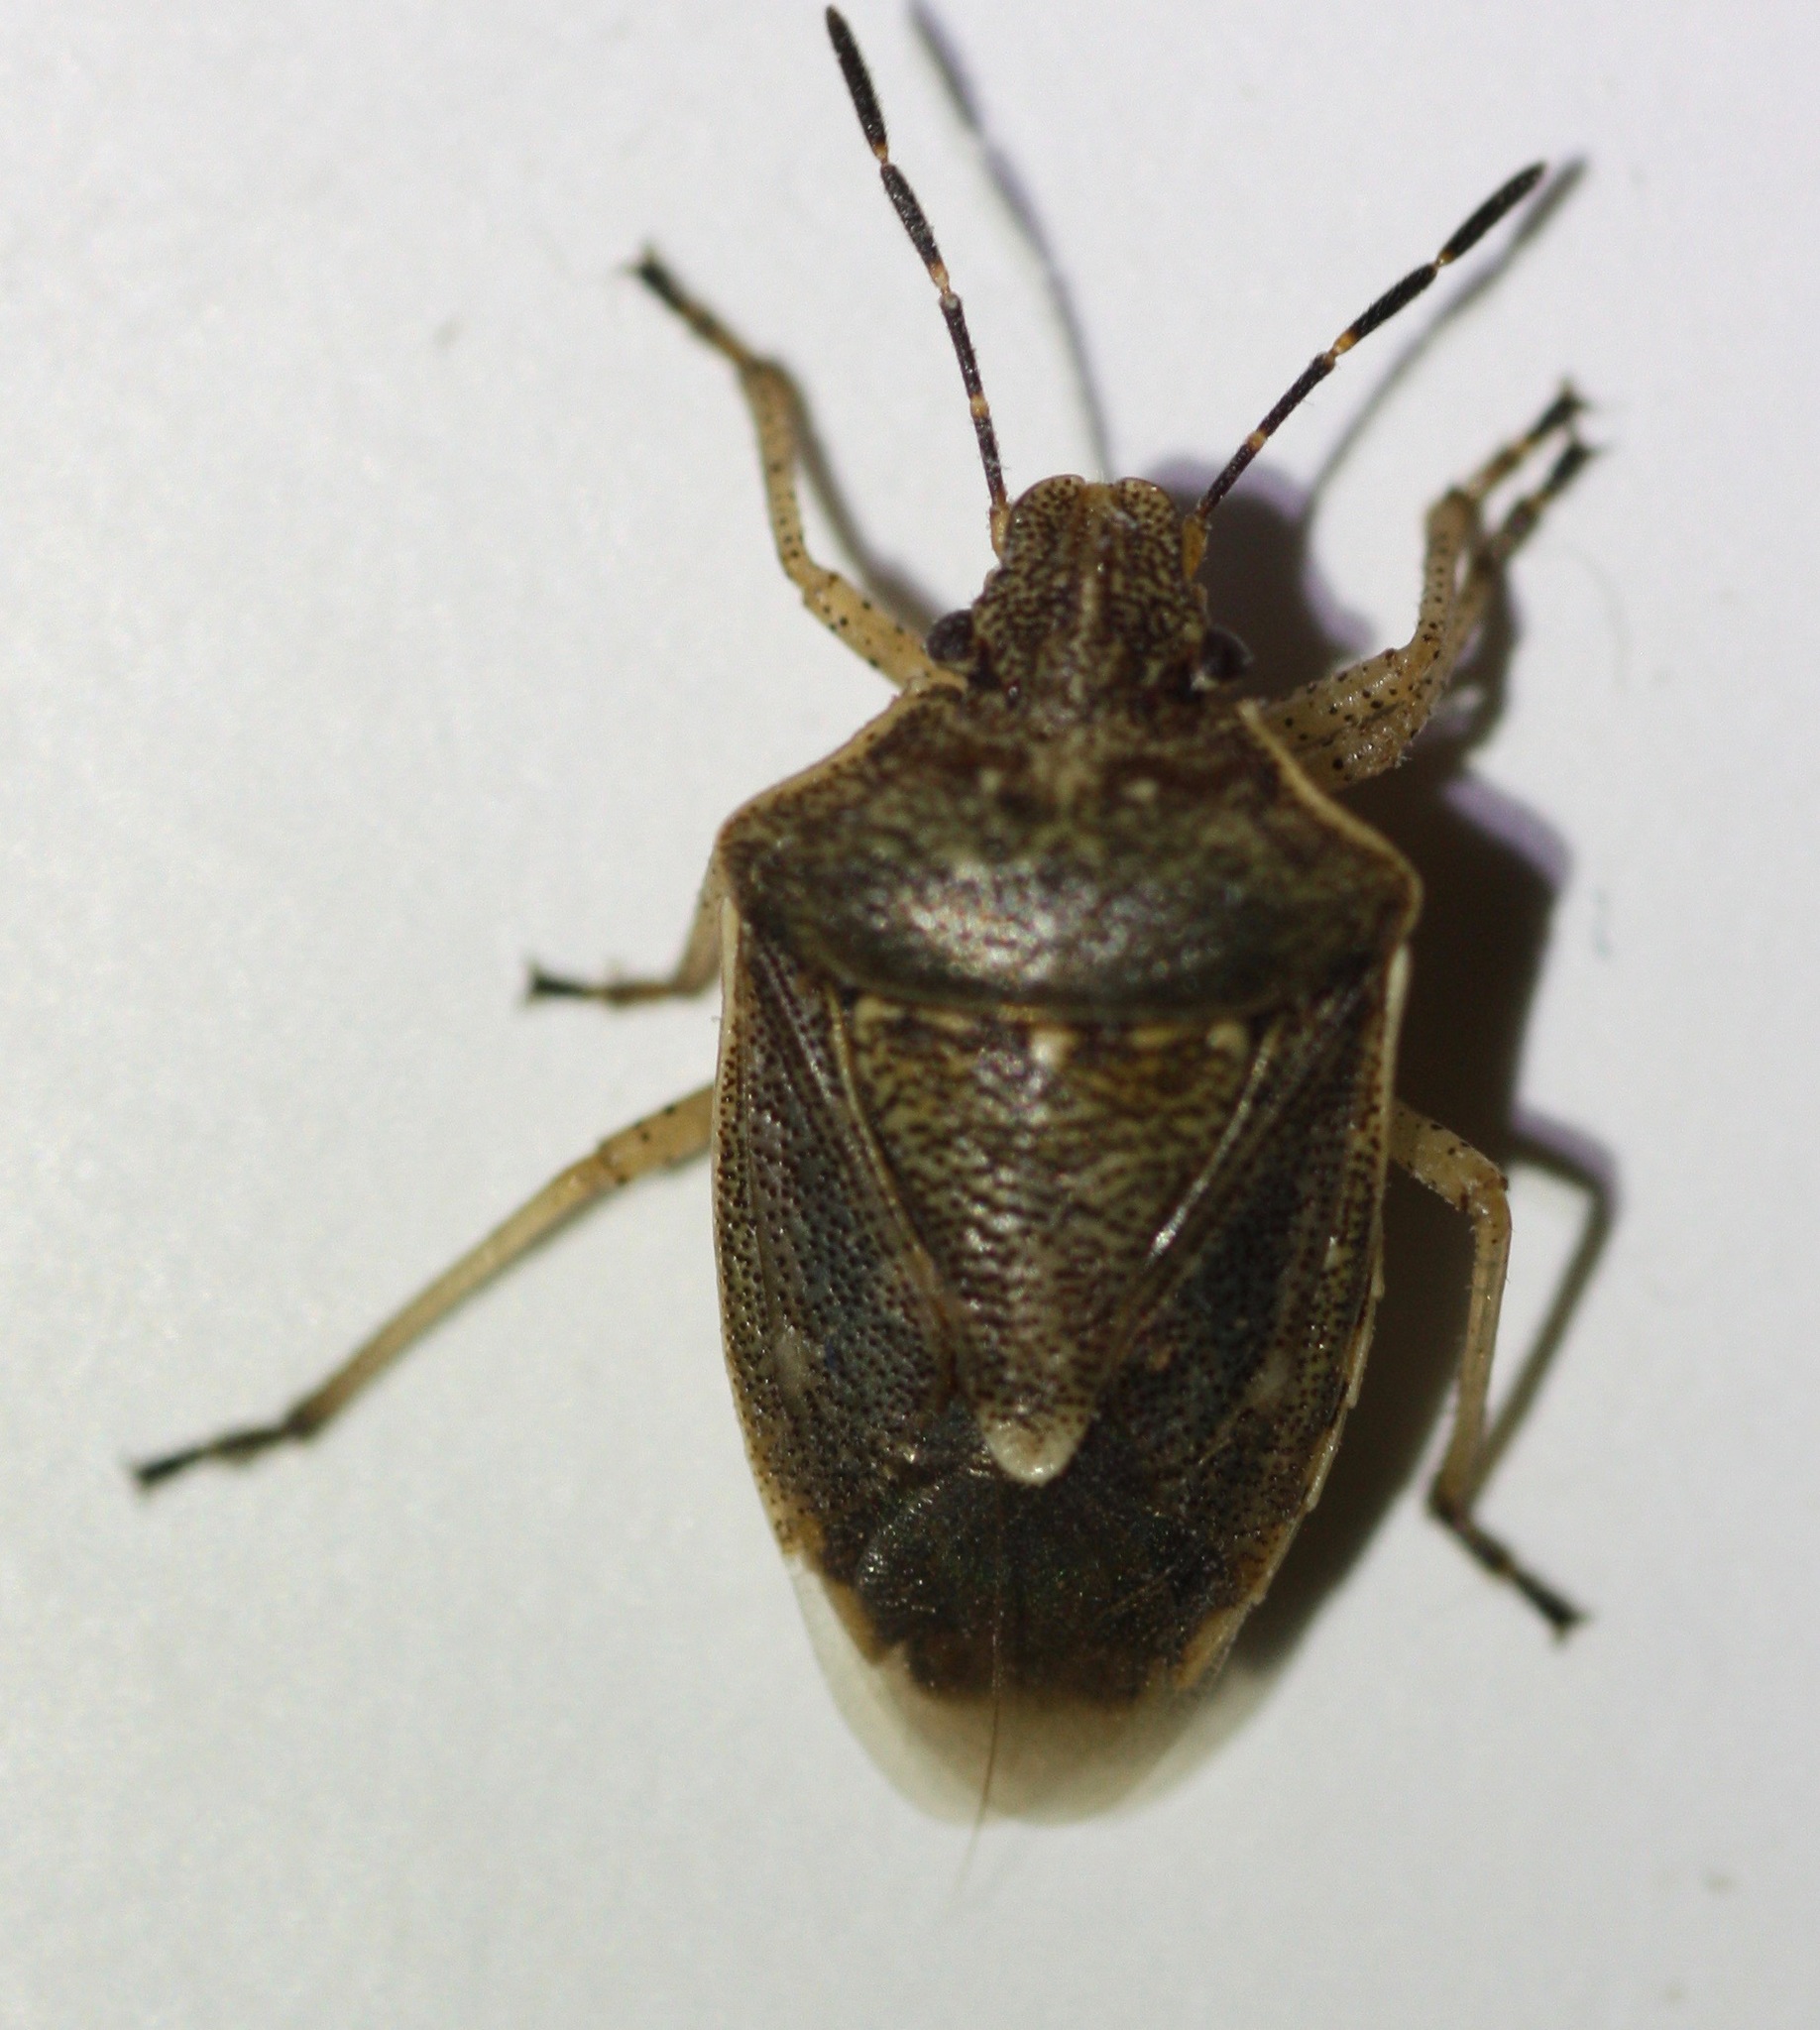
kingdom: Animalia
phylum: Arthropoda
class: Insecta
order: Hemiptera
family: Pentatomidae
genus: Moromorpha
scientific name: Moromorpha tetra
